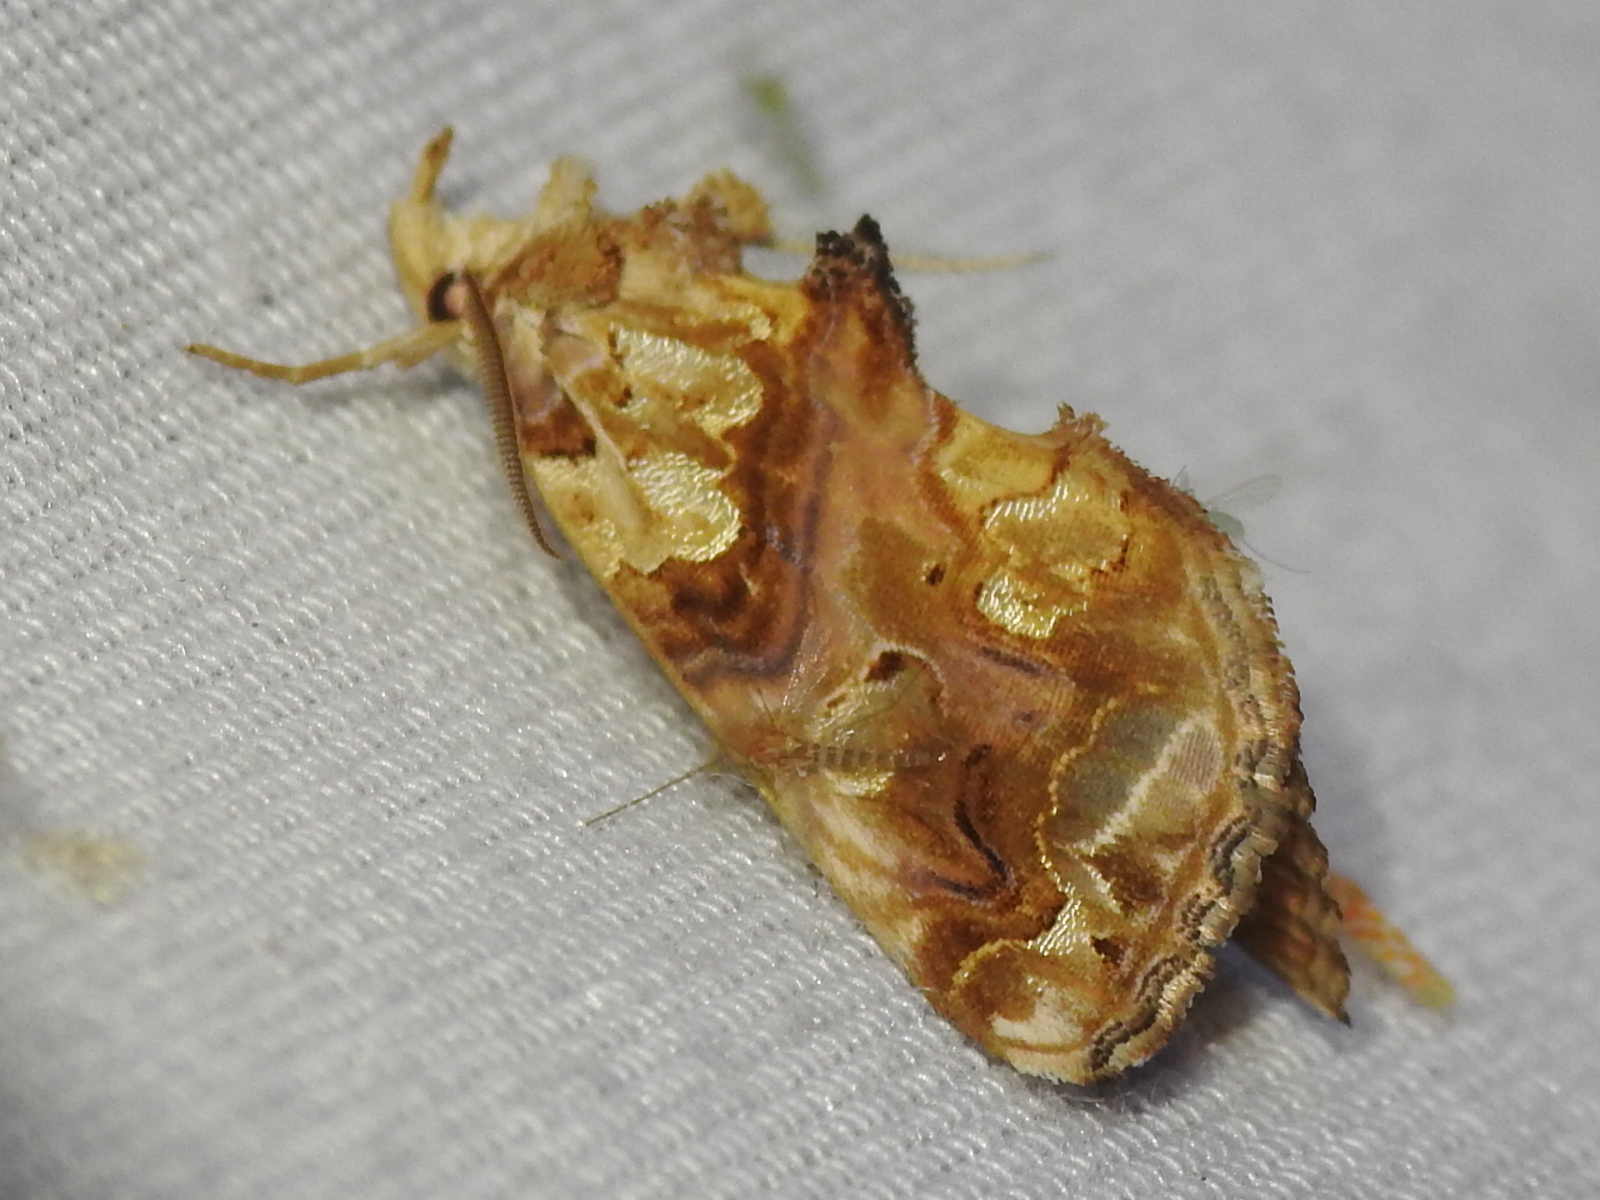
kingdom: Animalia
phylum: Arthropoda
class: Insecta
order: Lepidoptera
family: Erebidae
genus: Plusiodonta
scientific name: Plusiodonta compressipalpis
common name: Moonseed moth
